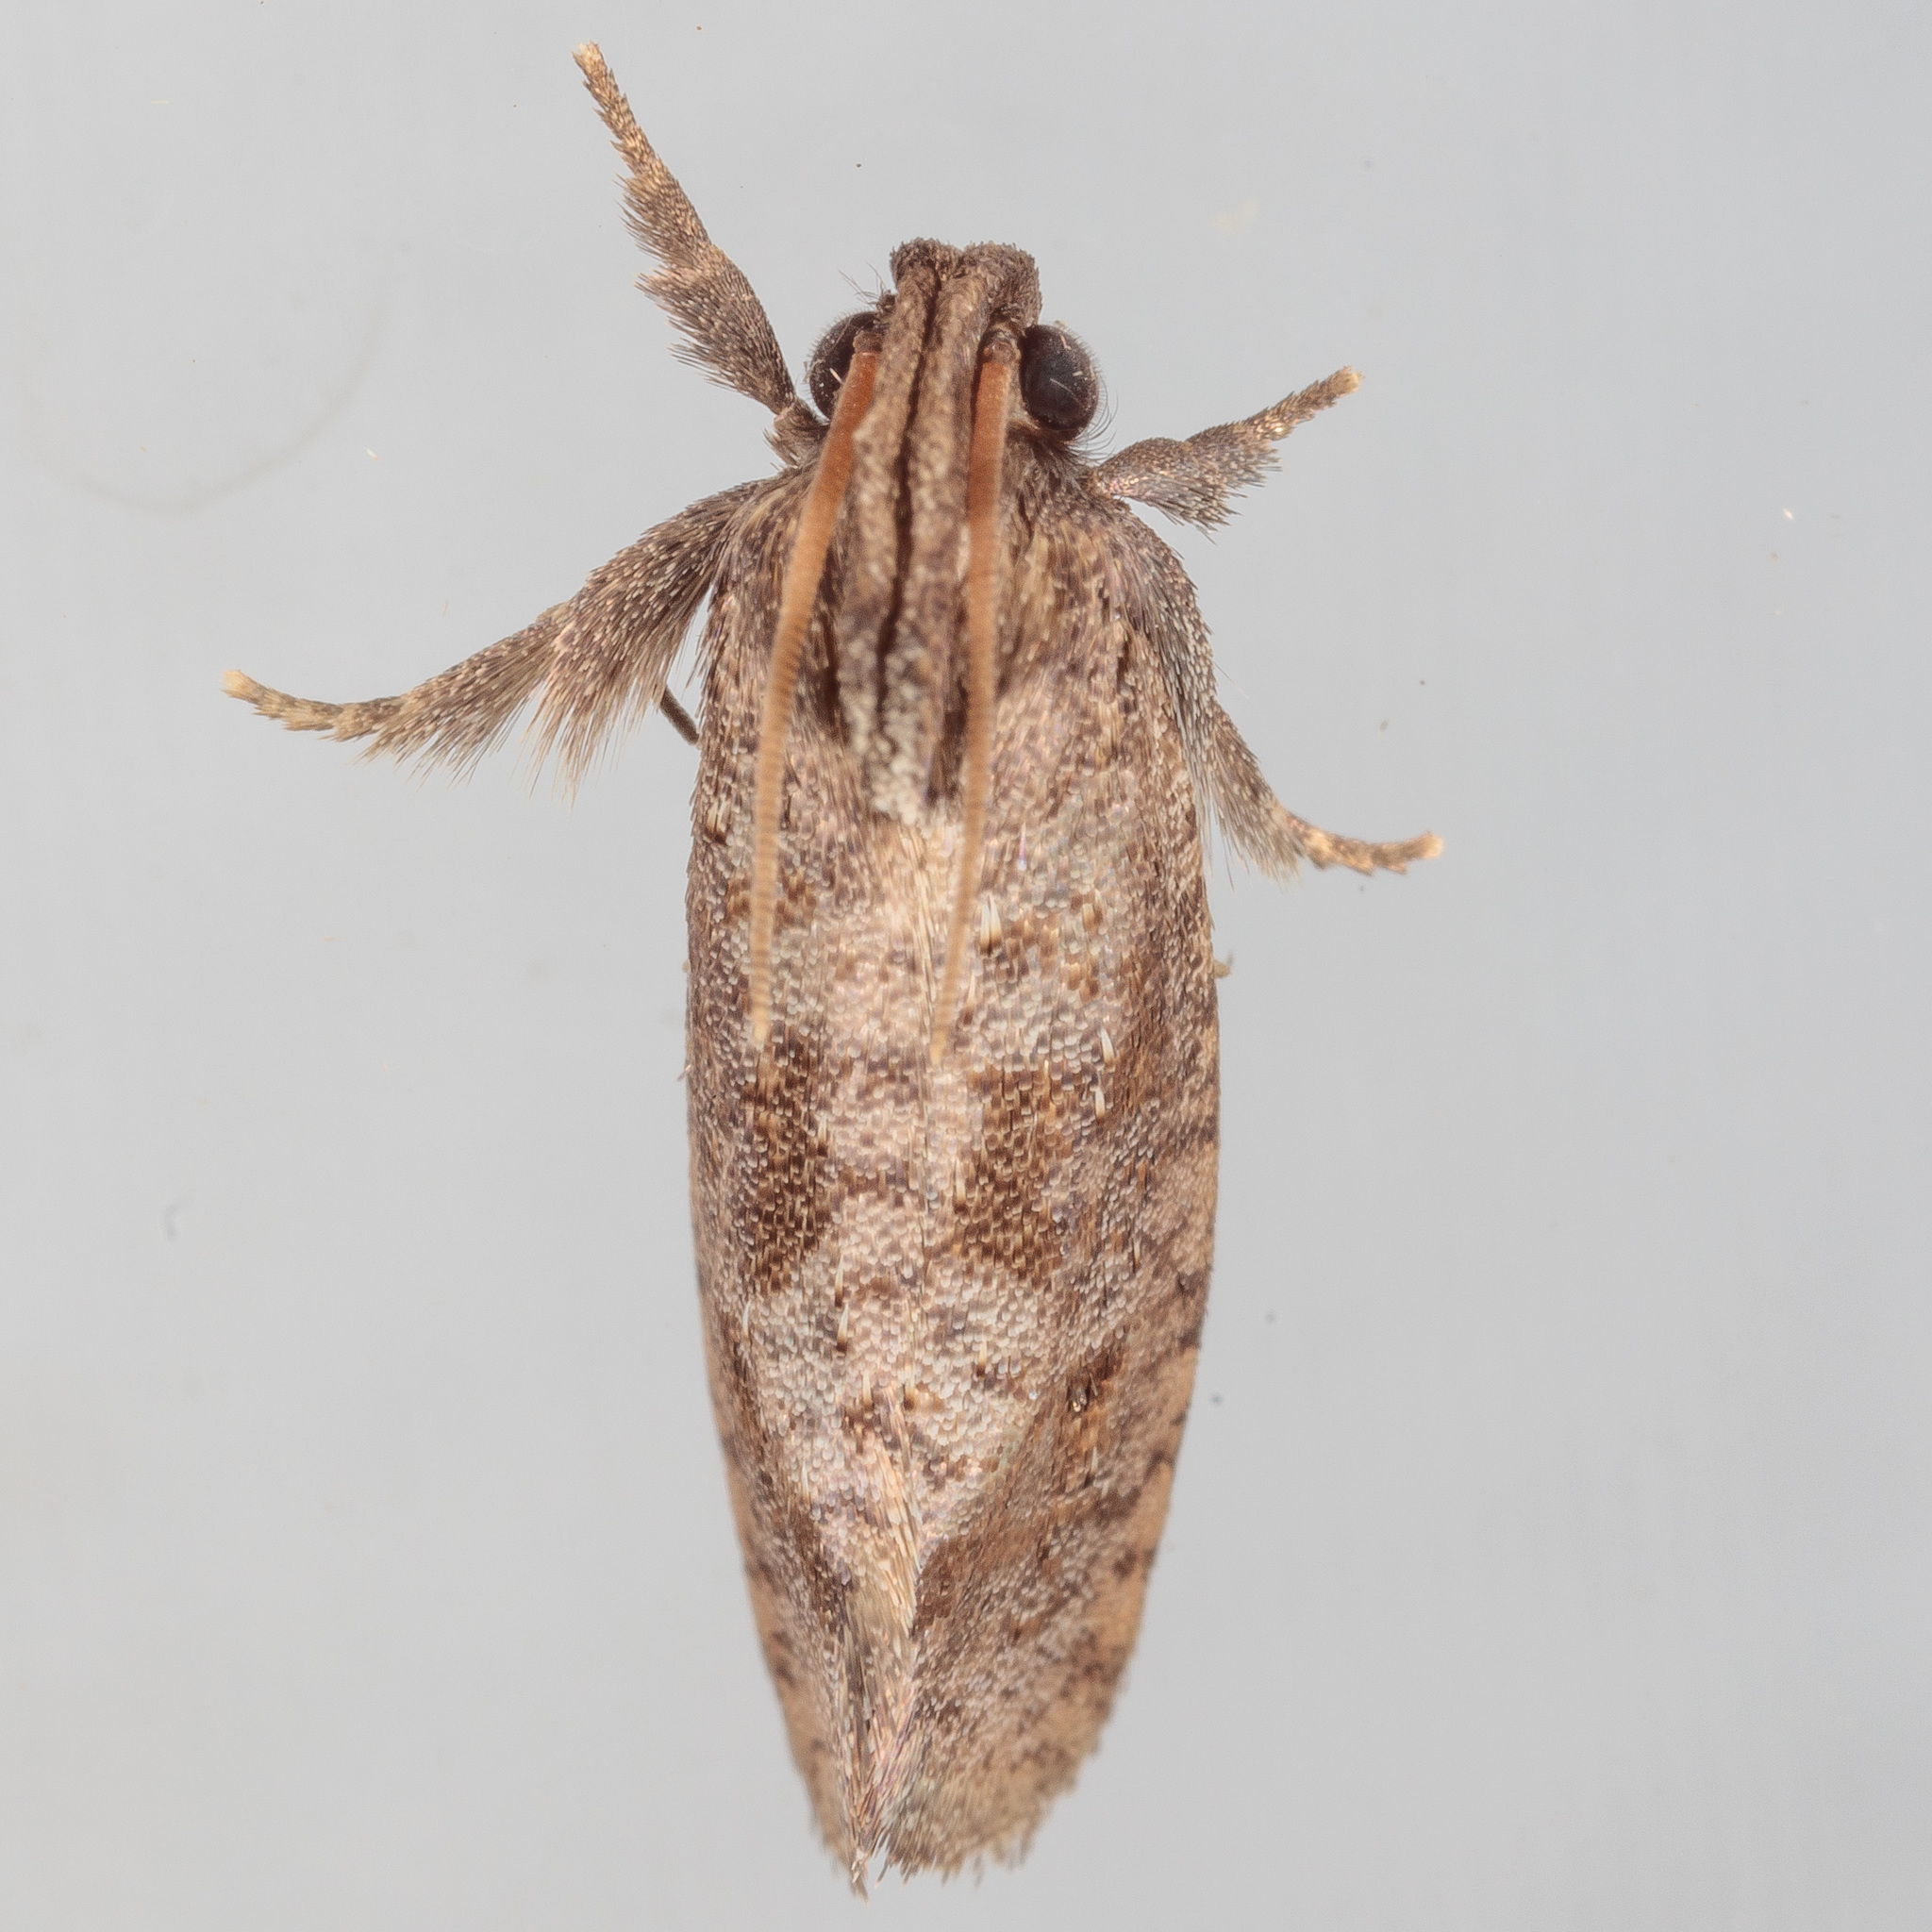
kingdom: Animalia
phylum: Arthropoda
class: Insecta
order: Lepidoptera
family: Tineidae
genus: Acrolophus
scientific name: Acrolophus texanella
